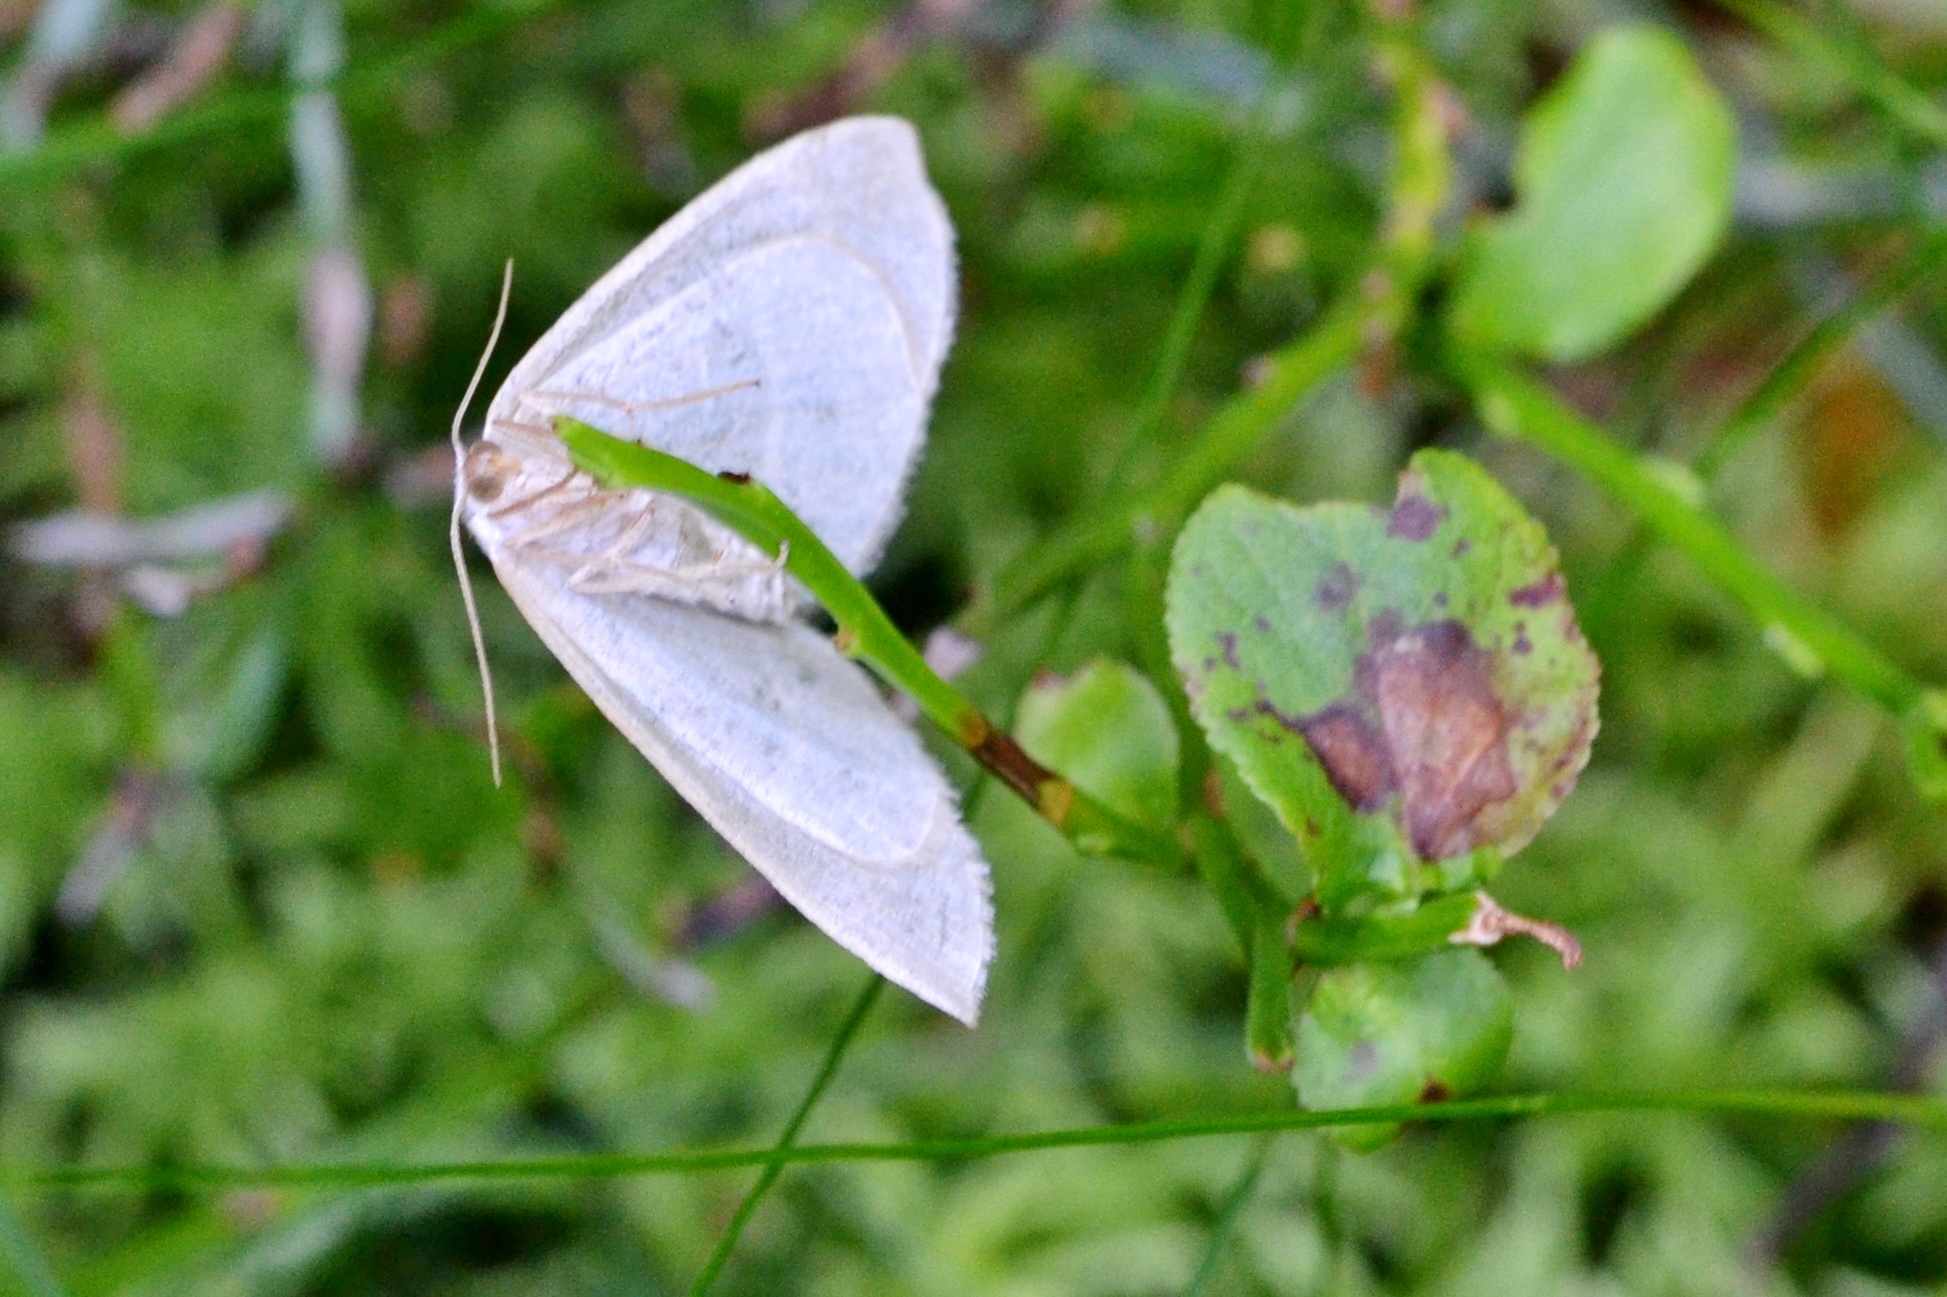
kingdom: Animalia
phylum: Arthropoda
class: Insecta
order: Lepidoptera
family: Geometridae
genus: Hylaea
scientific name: Hylaea fasciaria
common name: Barred red
